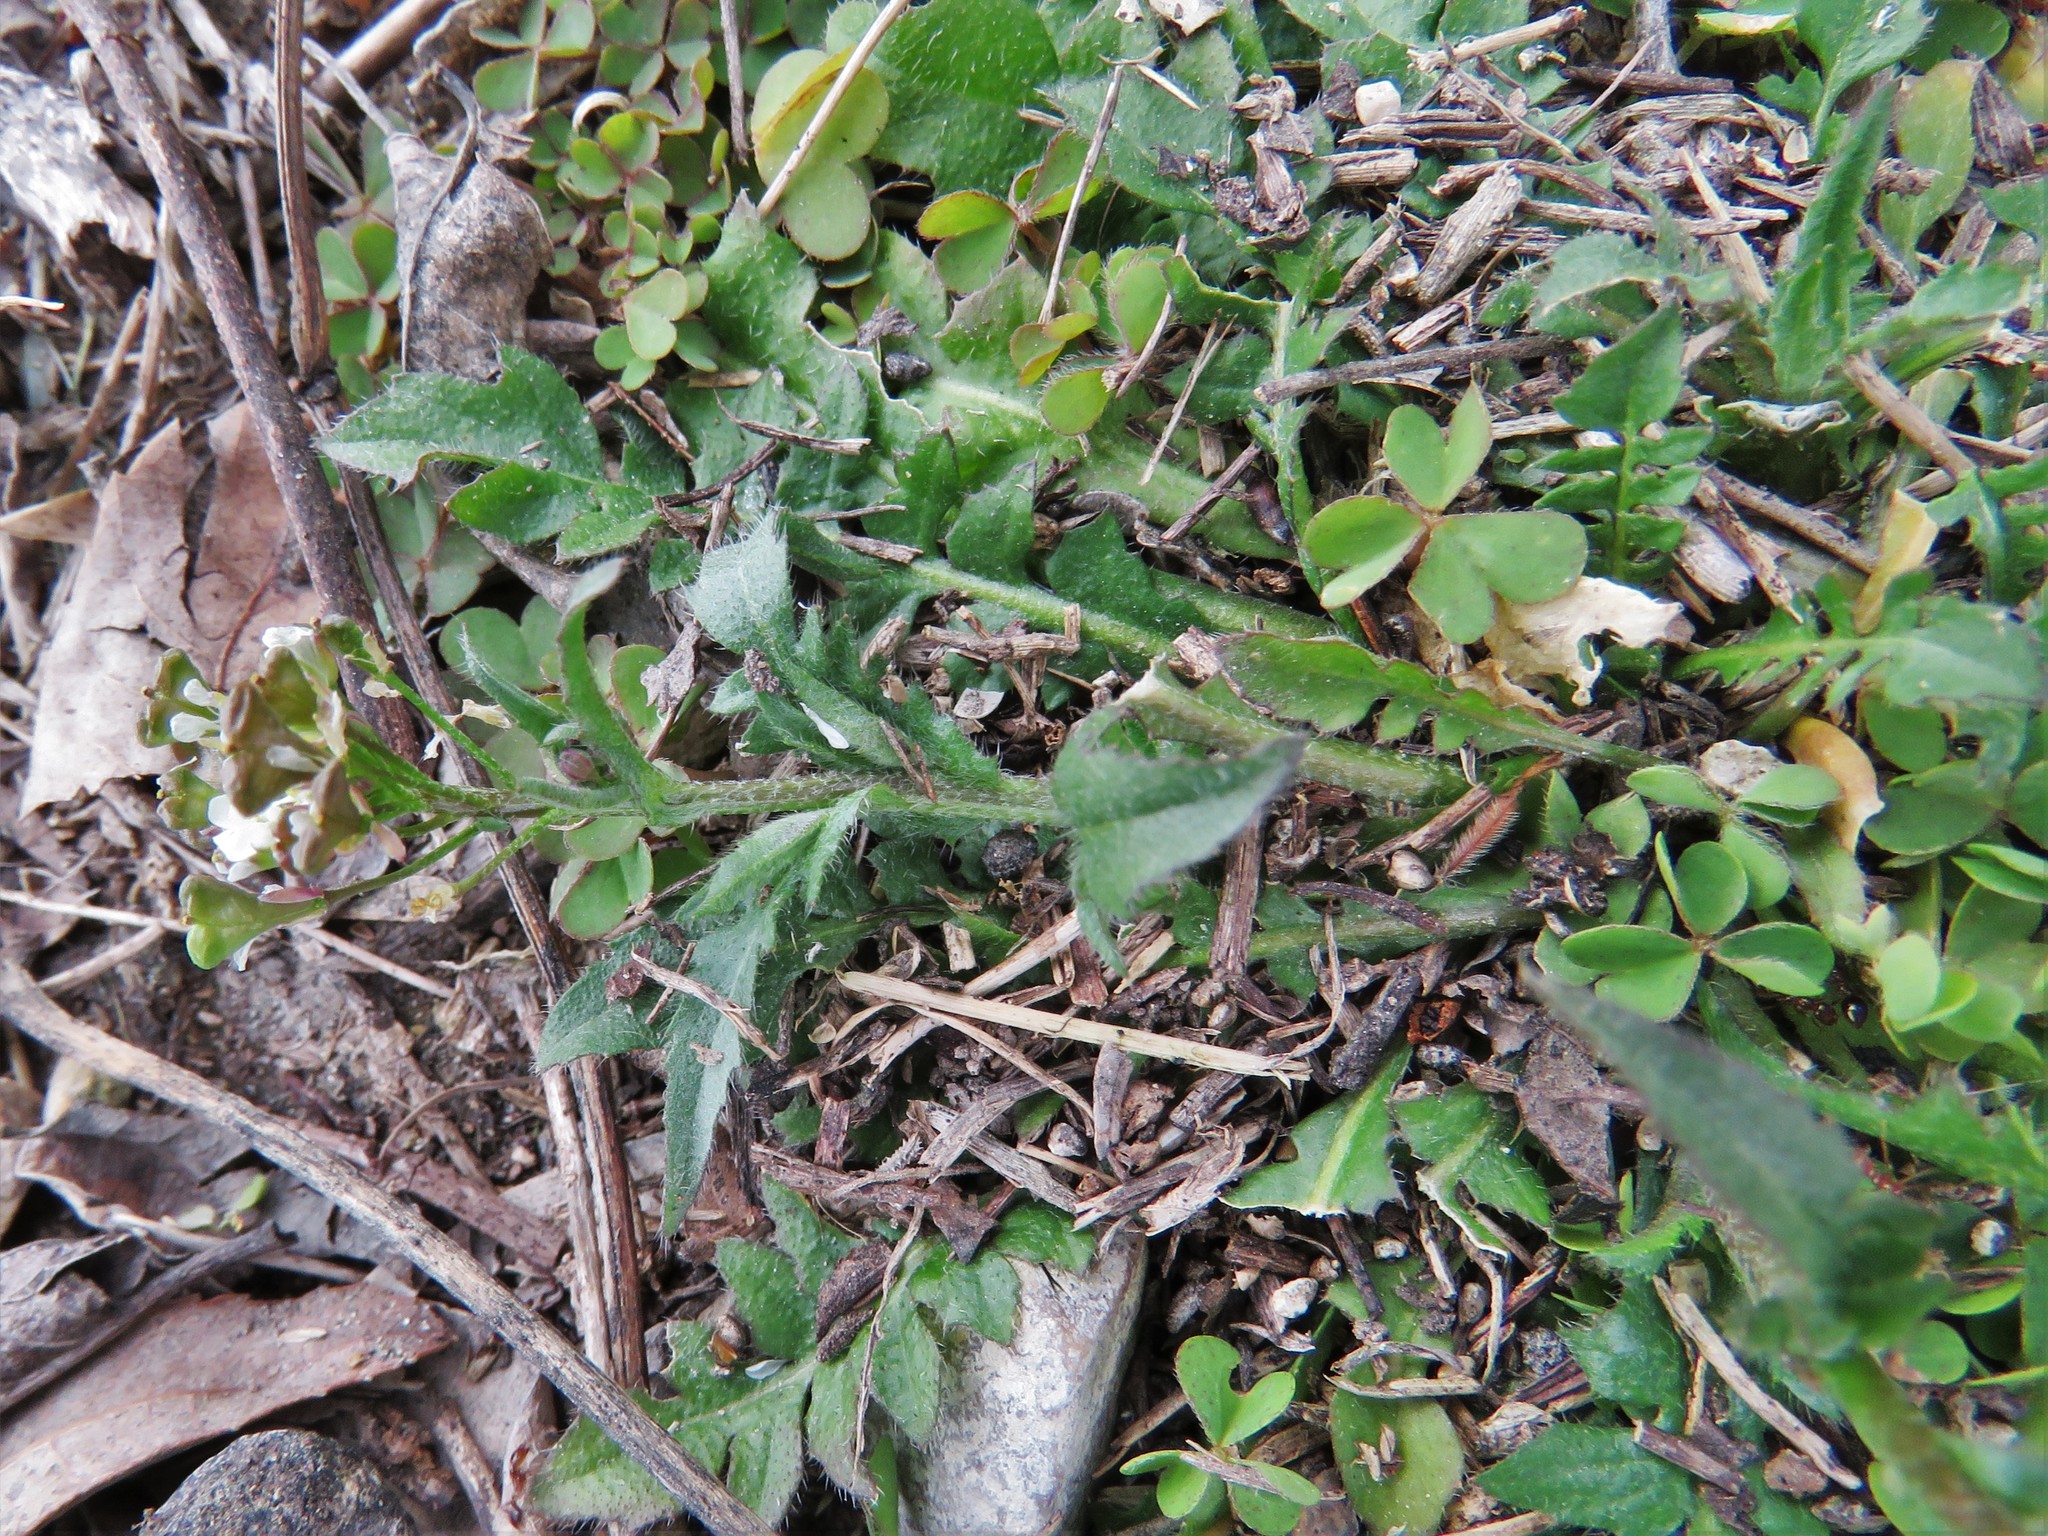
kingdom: Plantae
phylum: Tracheophyta
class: Magnoliopsida
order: Brassicales
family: Brassicaceae
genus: Capsella
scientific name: Capsella bursa-pastoris
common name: Shepherd's purse
